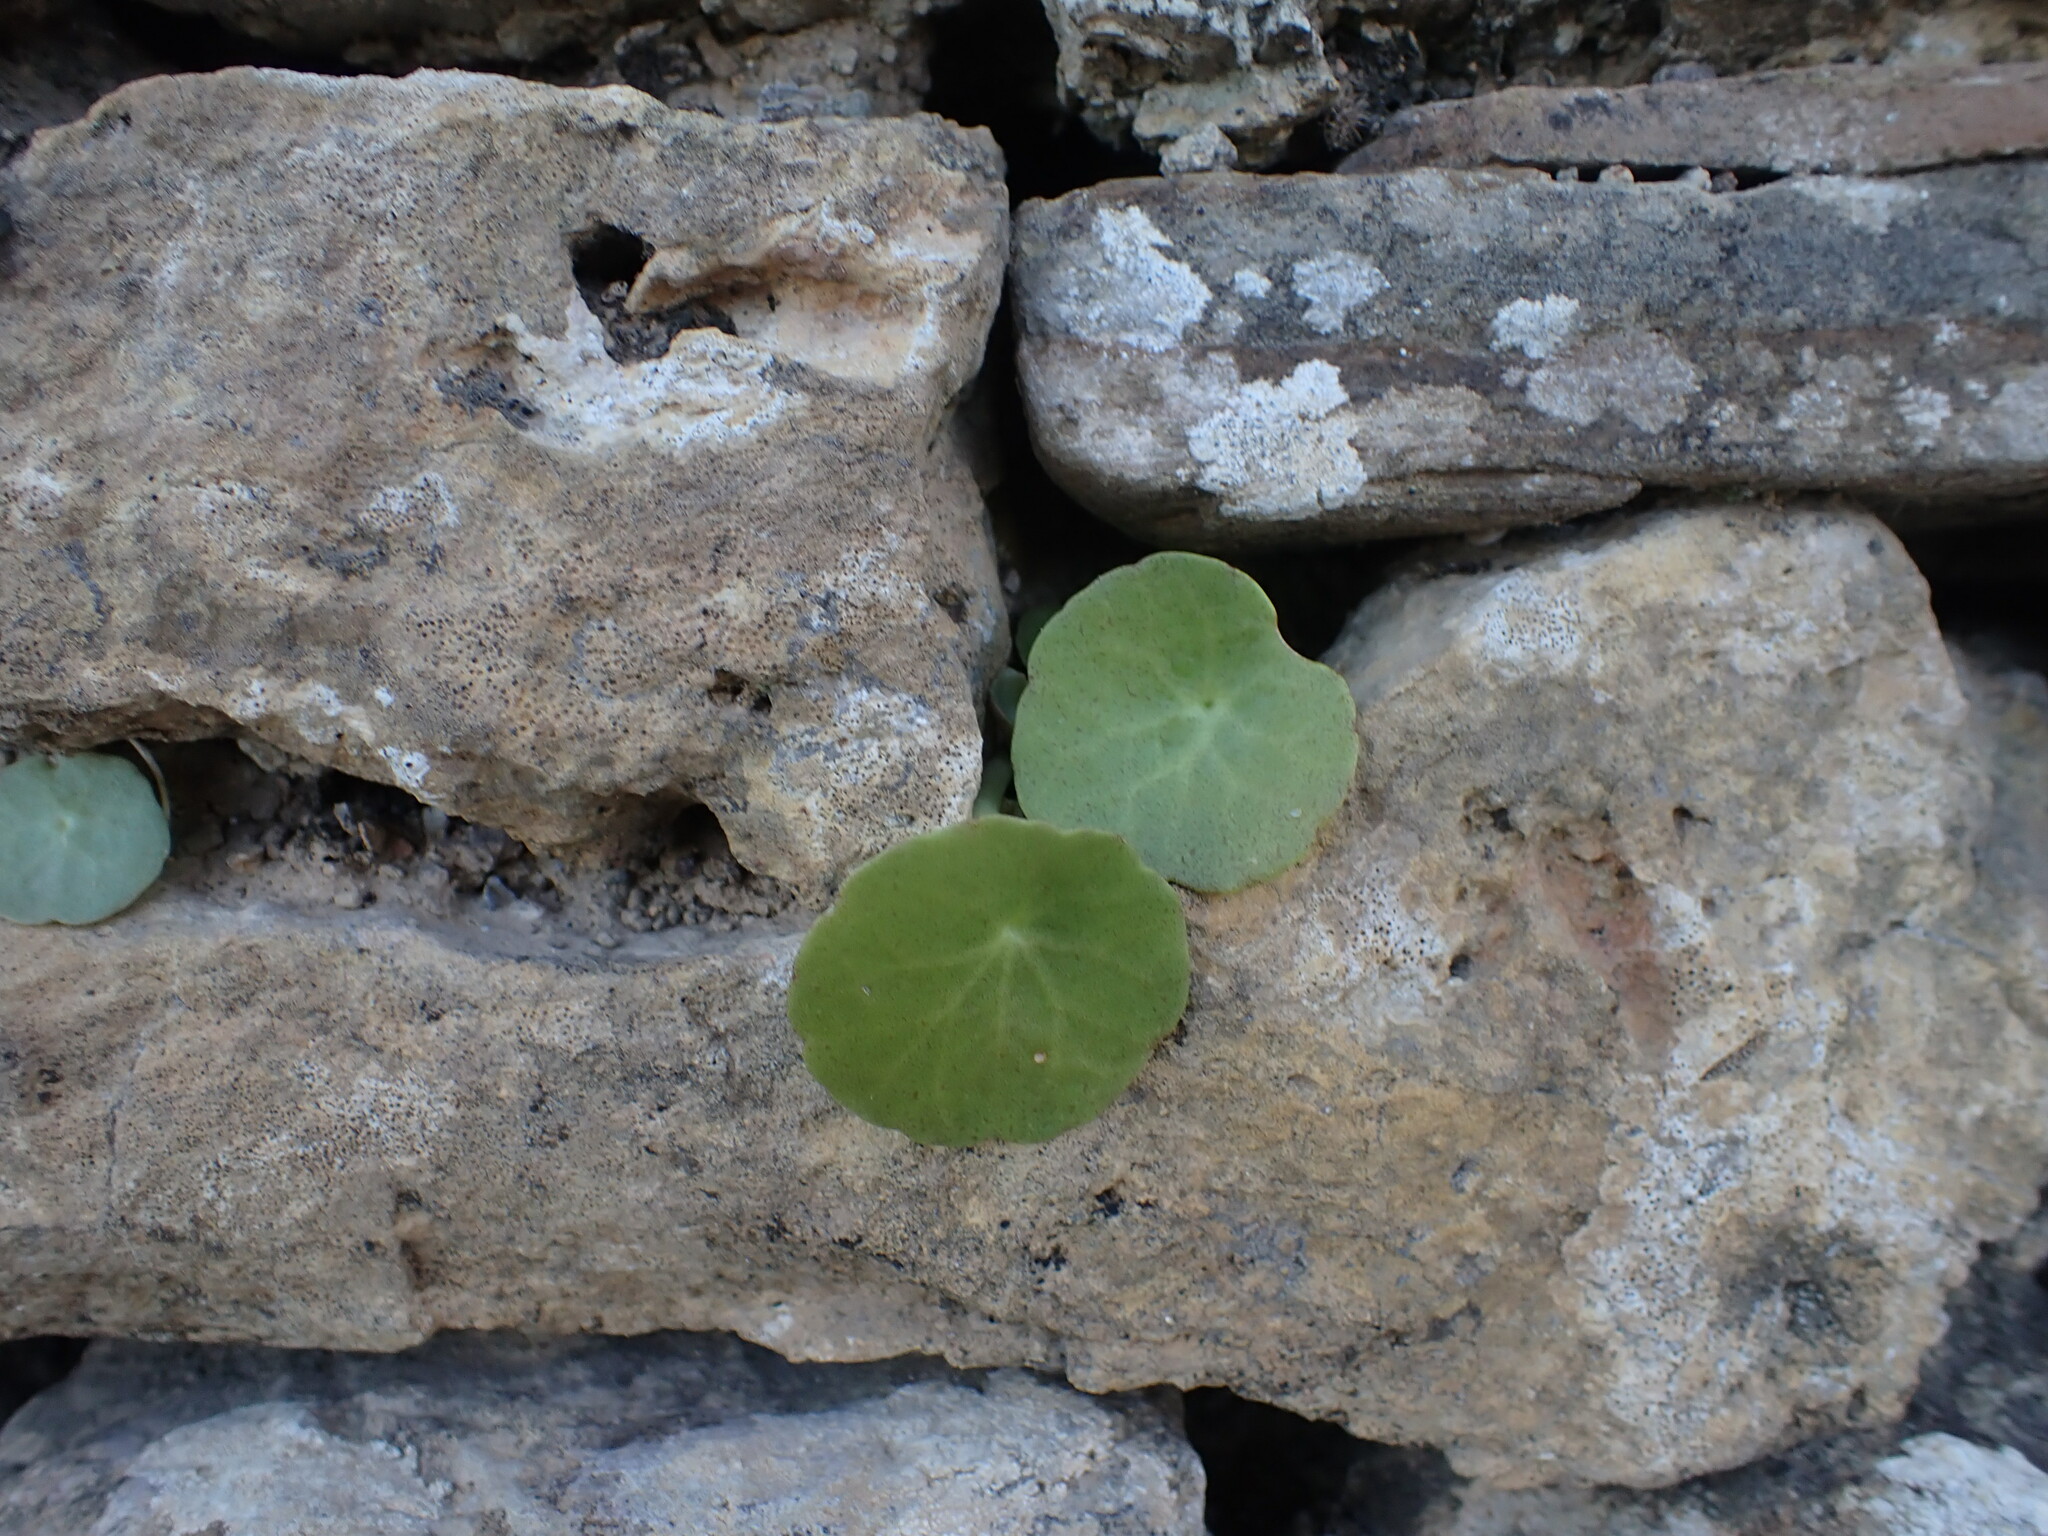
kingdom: Plantae
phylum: Tracheophyta
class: Magnoliopsida
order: Saxifragales
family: Crassulaceae
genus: Umbilicus
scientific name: Umbilicus rupestris
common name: Navelwort
